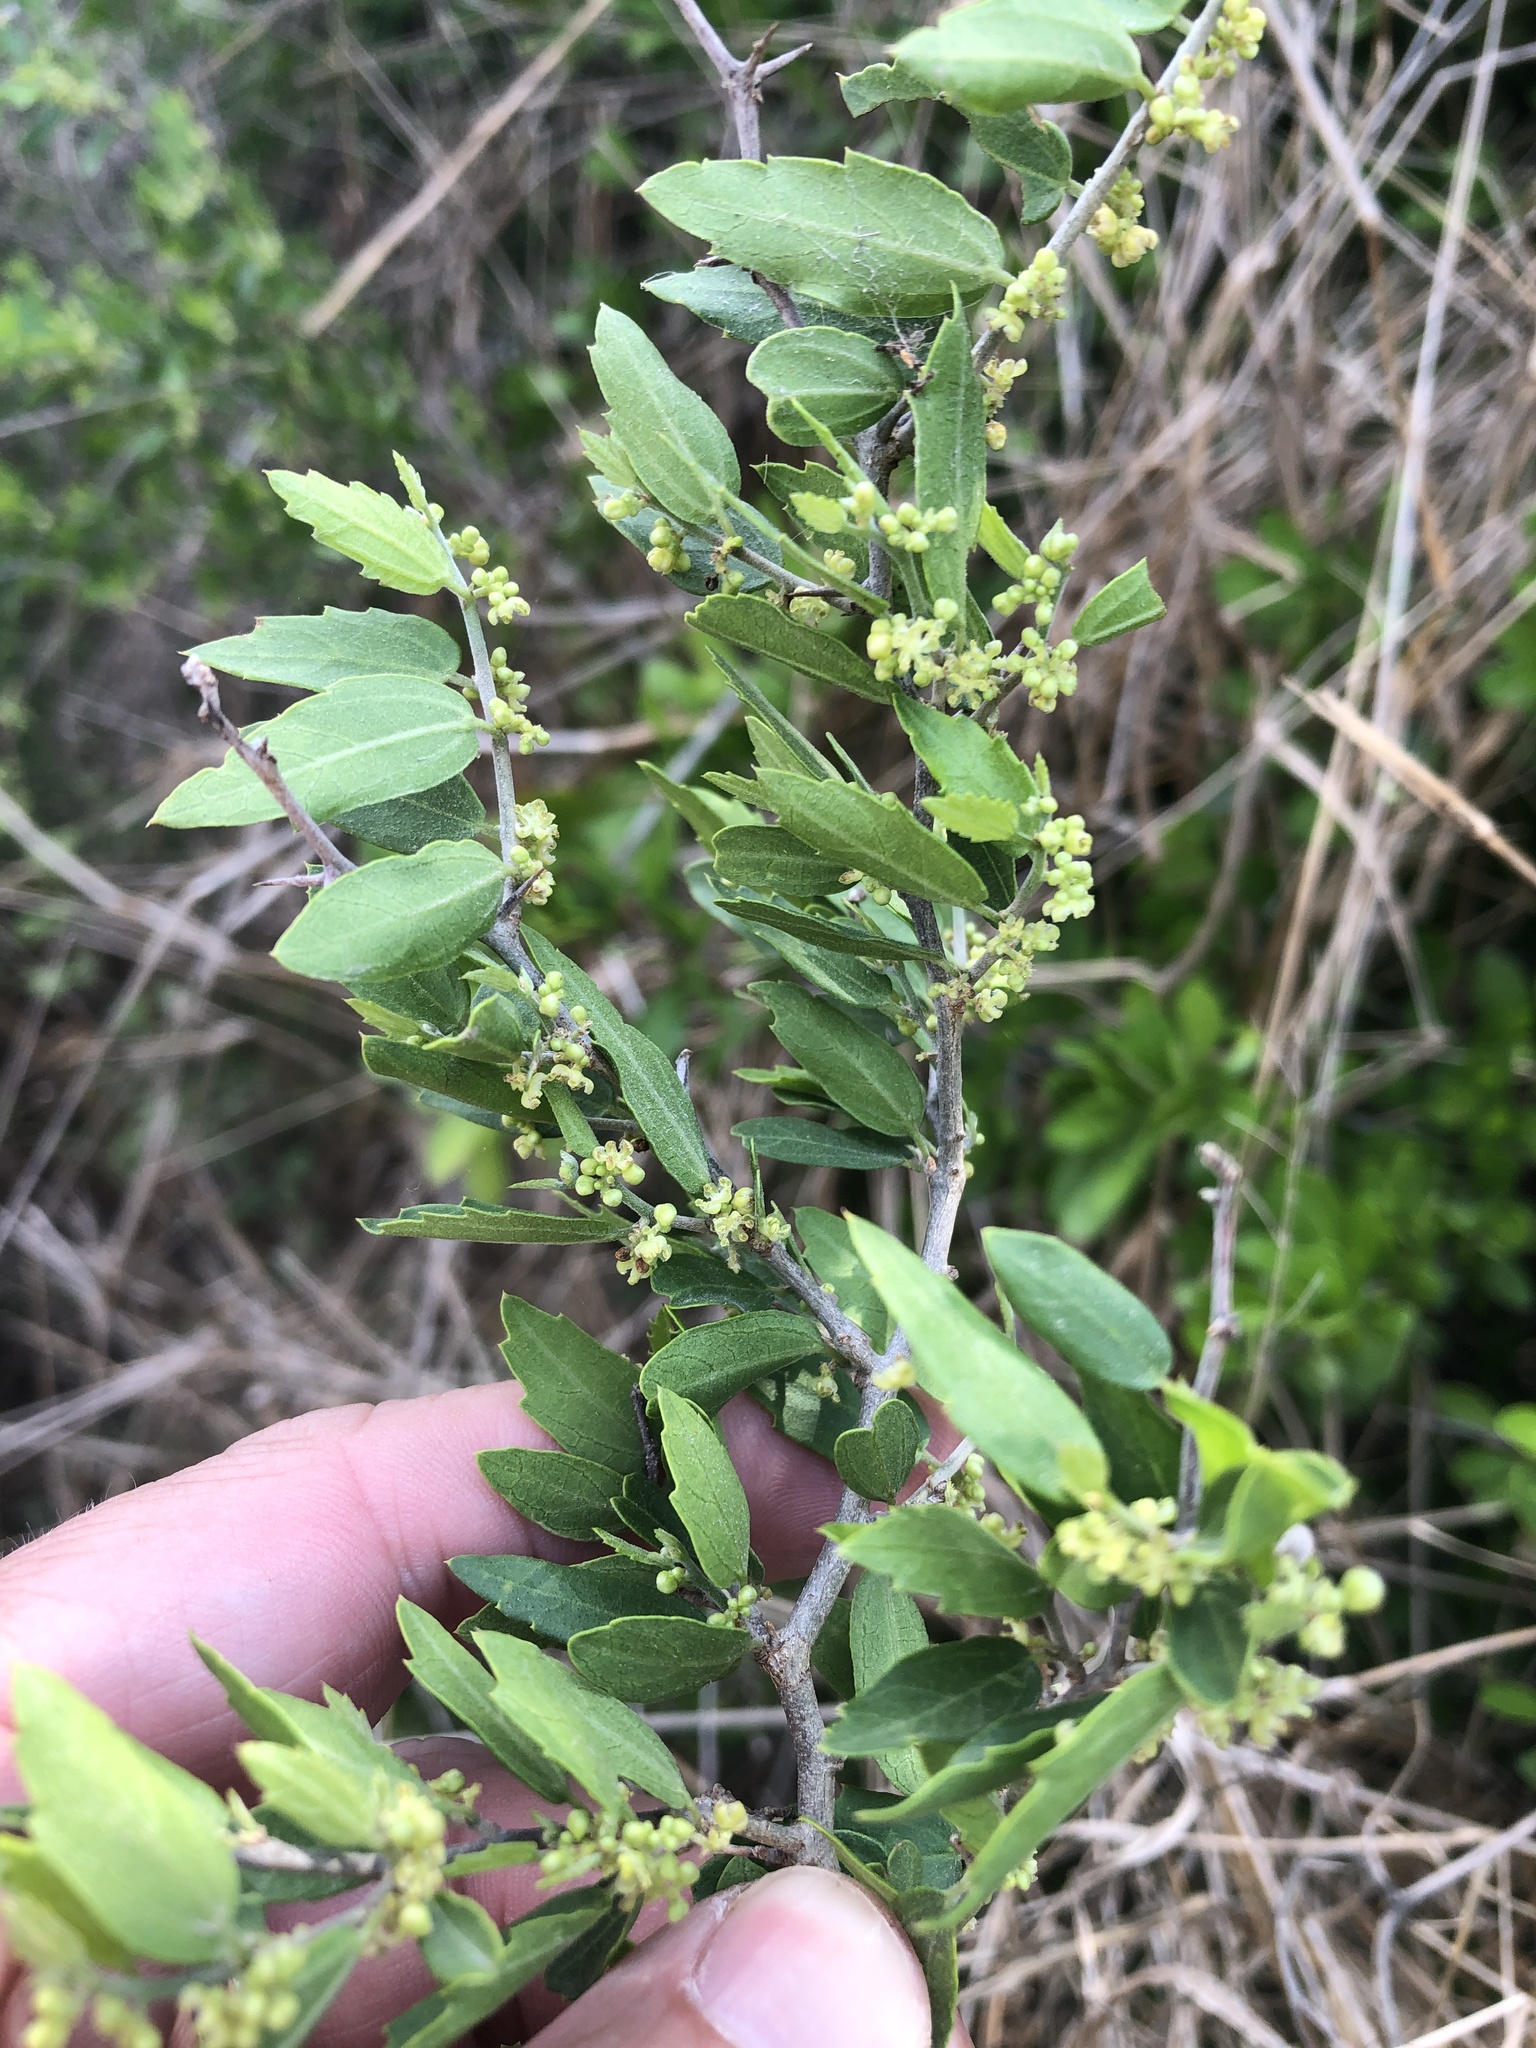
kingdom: Plantae
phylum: Tracheophyta
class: Magnoliopsida
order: Rosales
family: Cannabaceae
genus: Celtis
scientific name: Celtis pallida
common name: Desert hackberry
